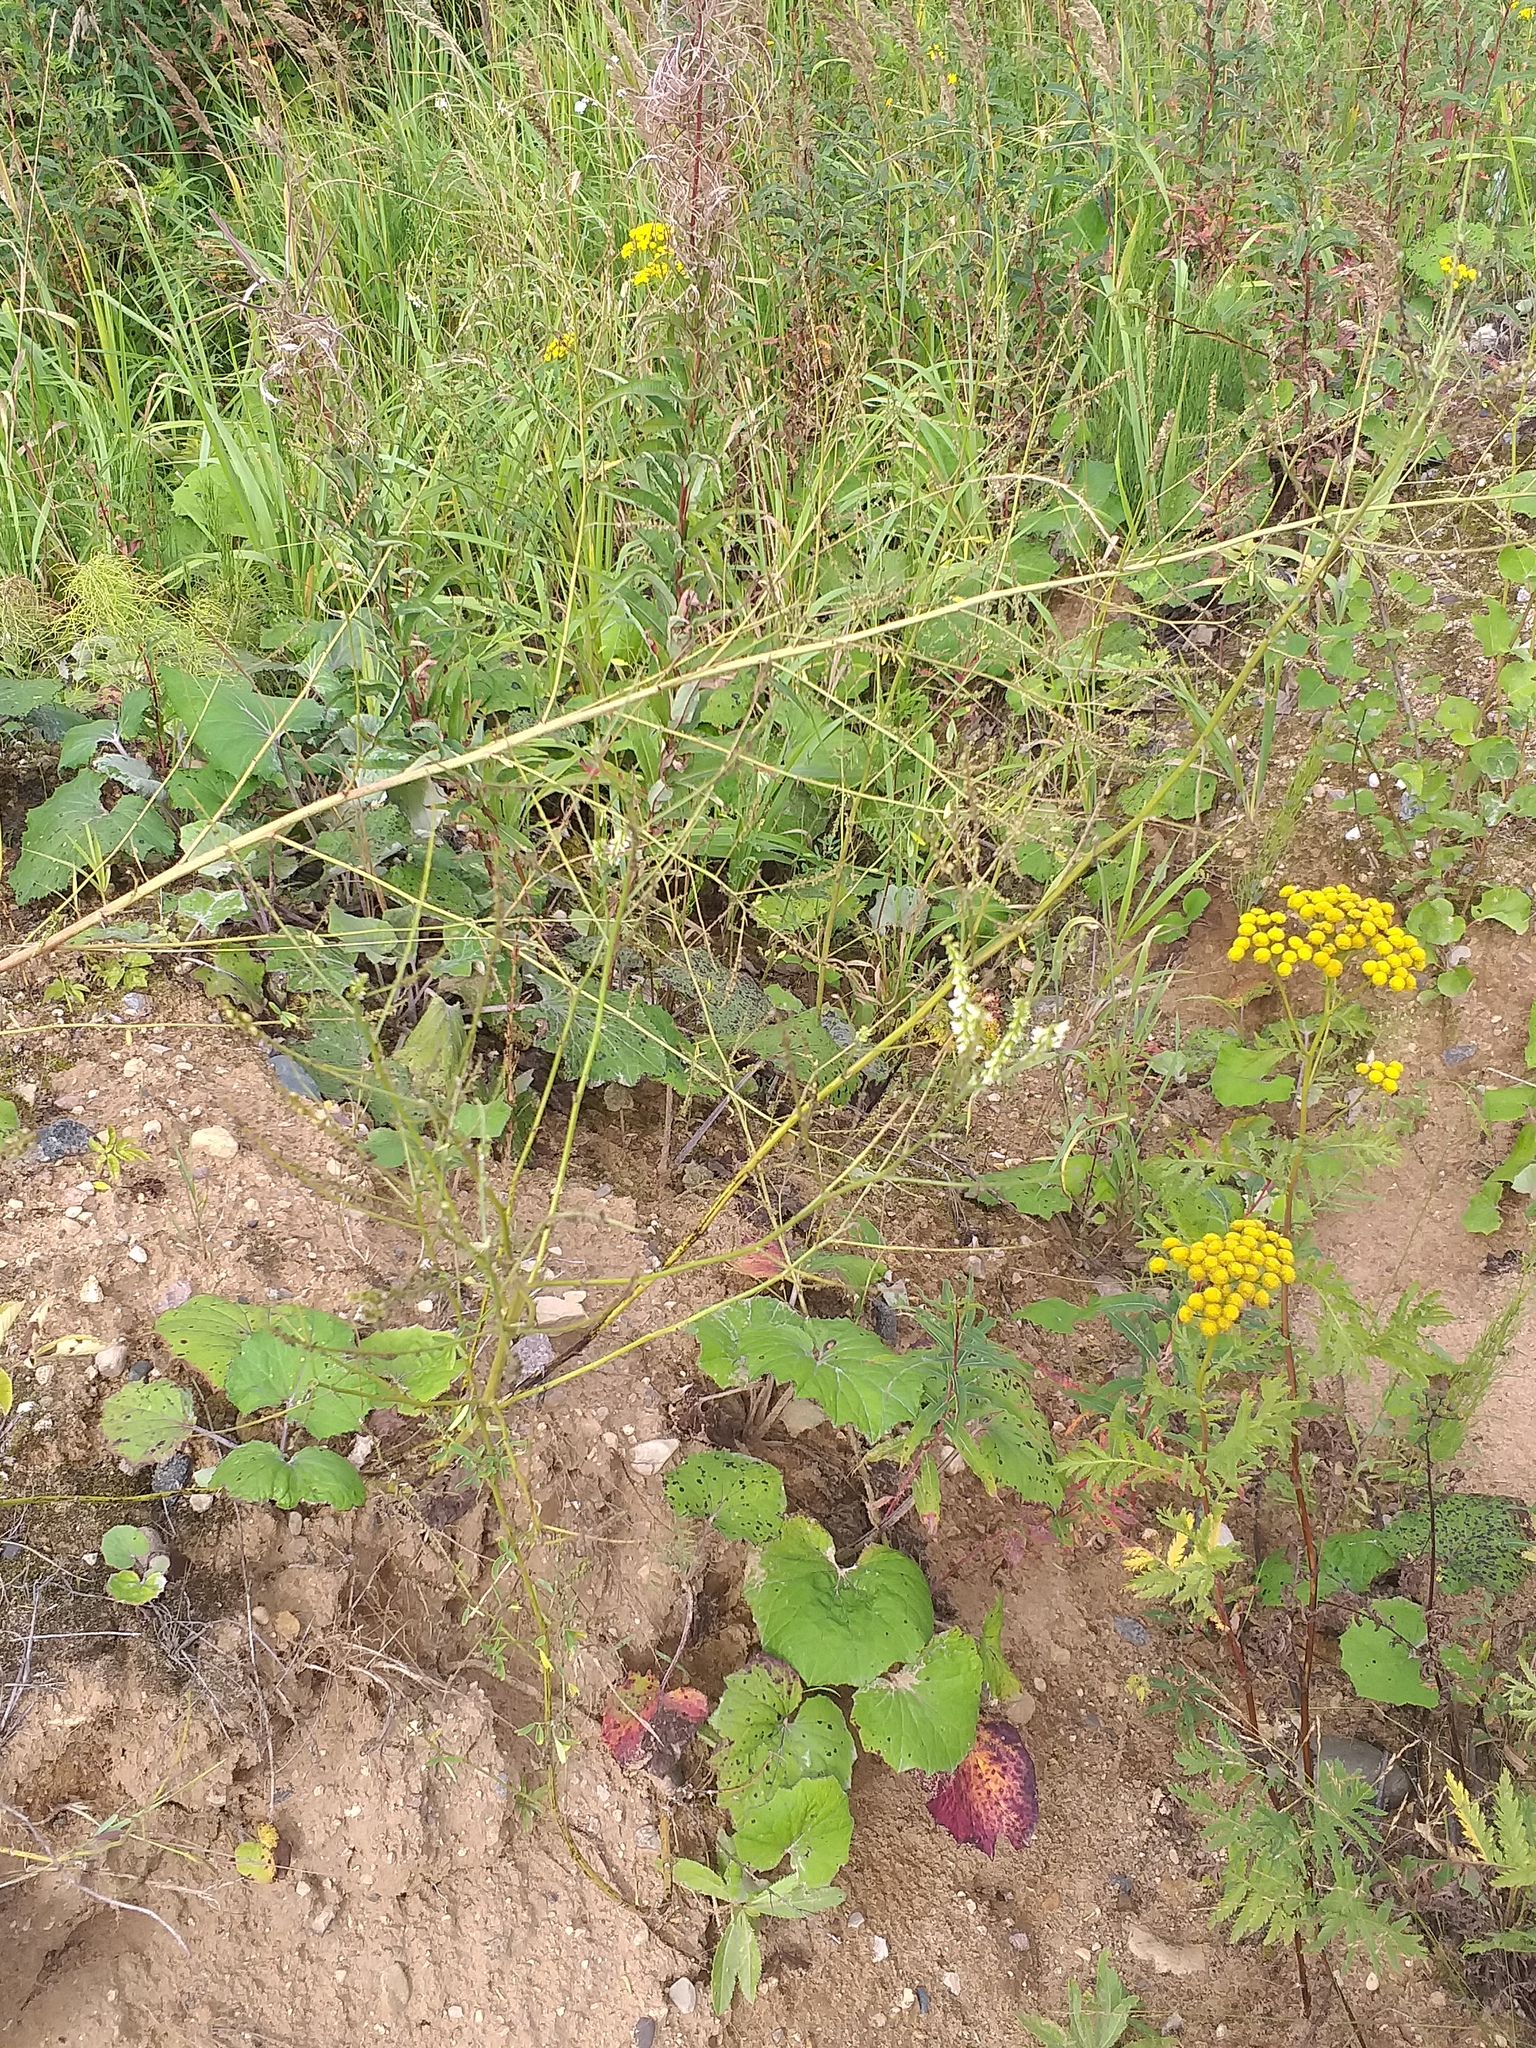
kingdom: Plantae
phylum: Tracheophyta
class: Magnoliopsida
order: Fabales
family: Fabaceae
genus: Melilotus
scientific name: Melilotus albus
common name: White melilot
